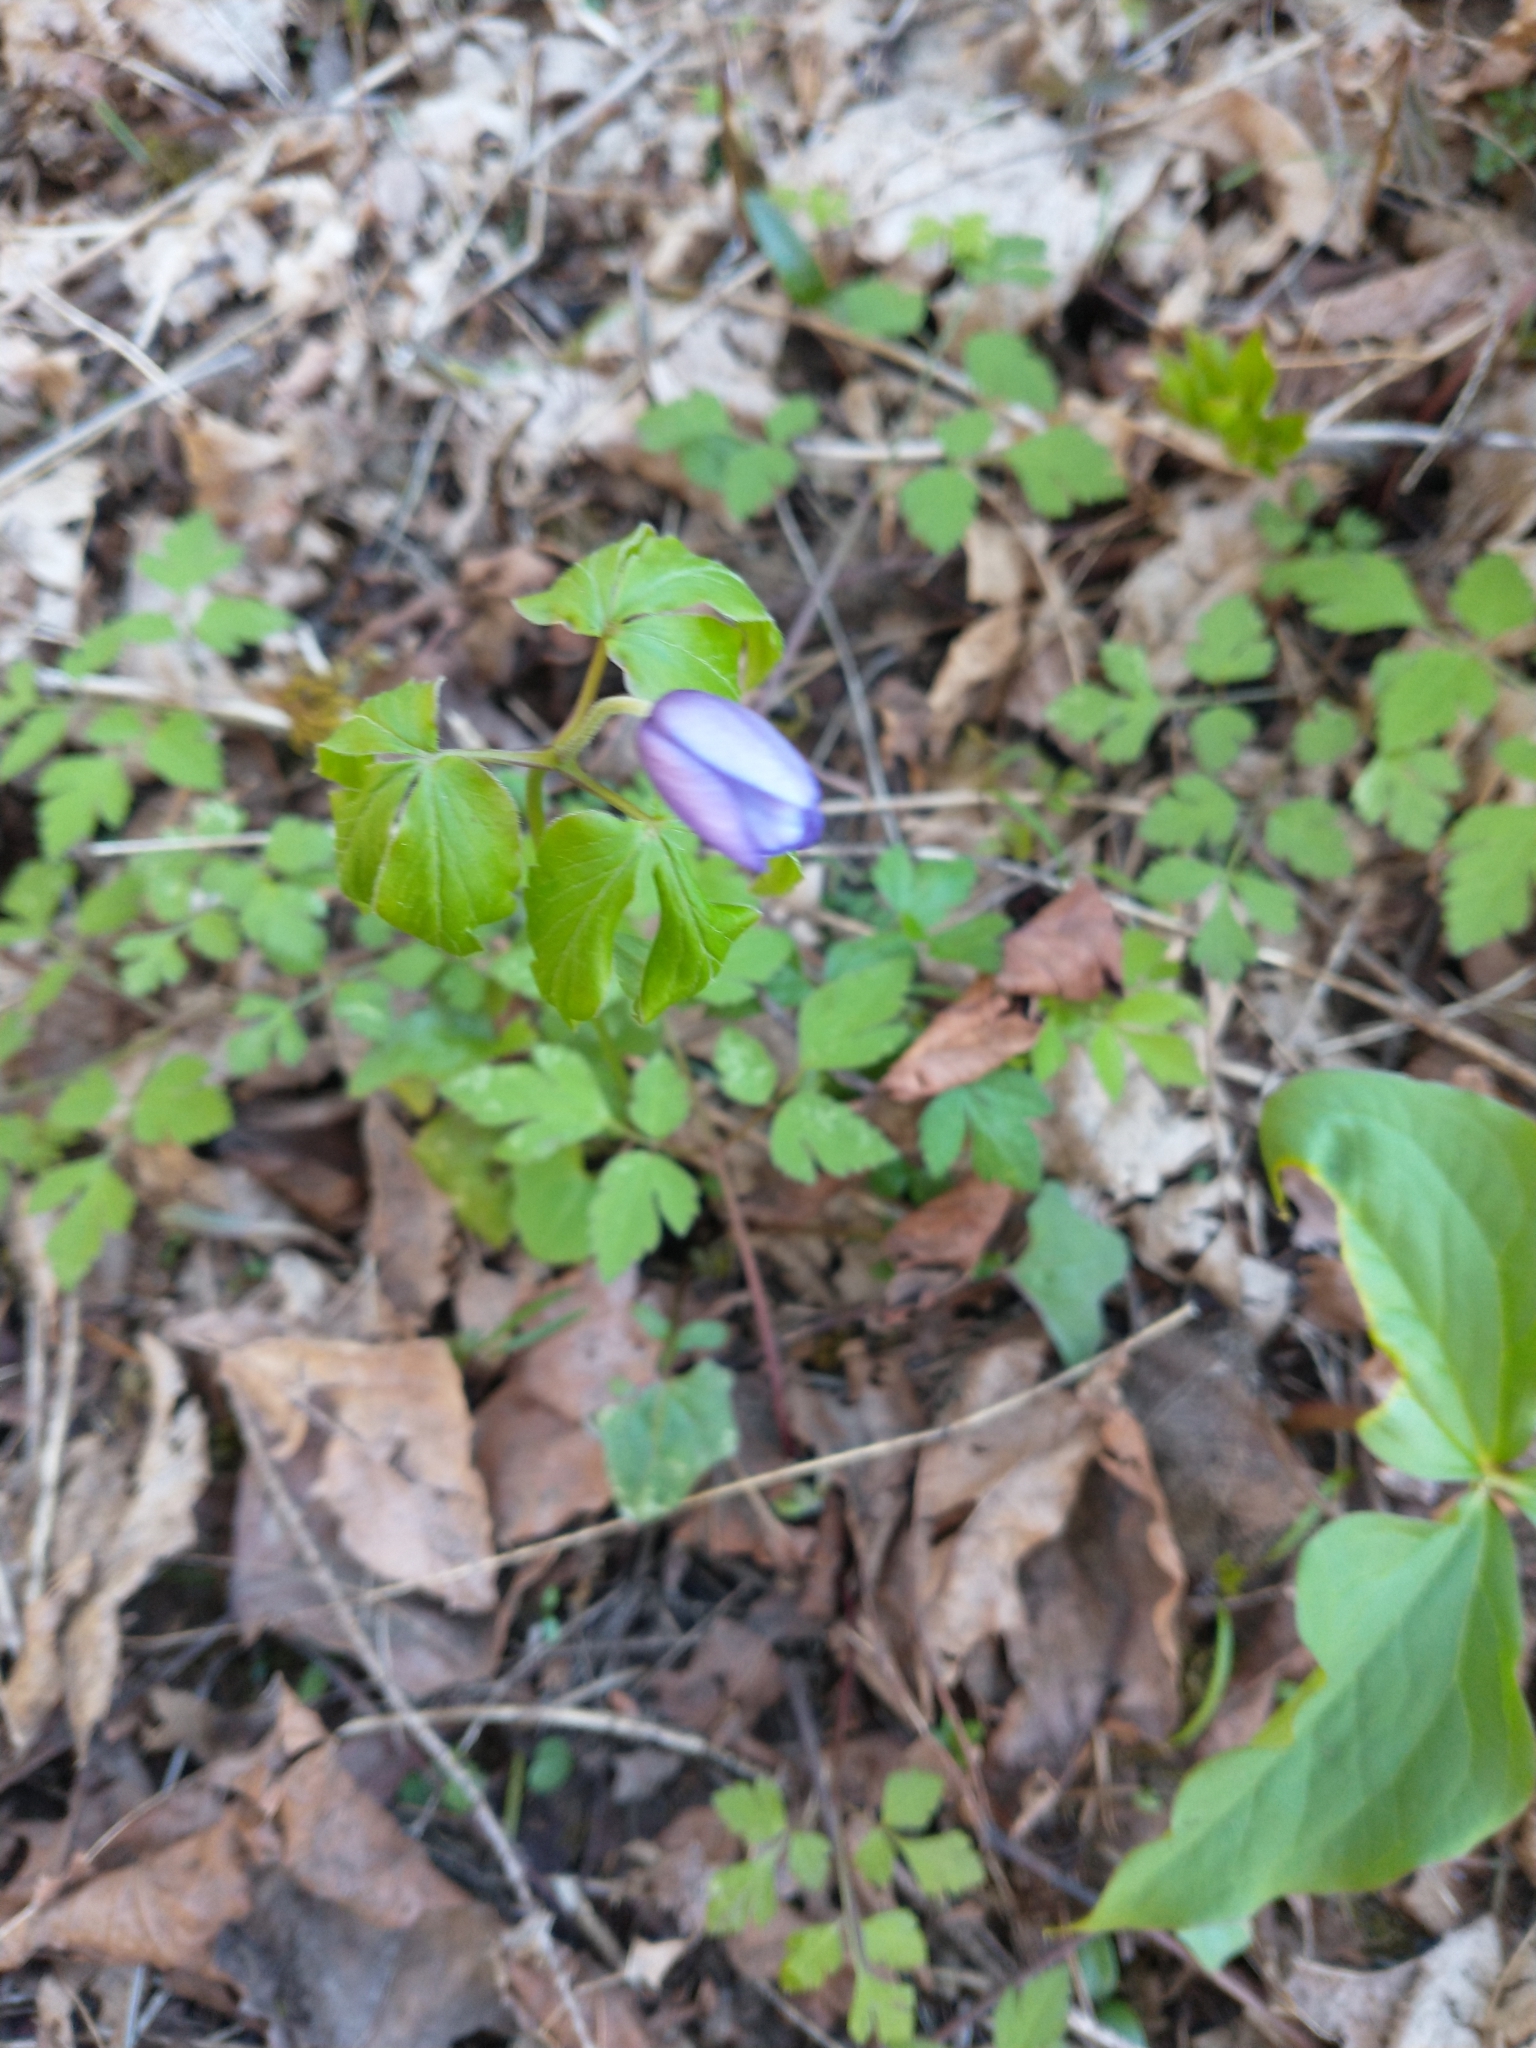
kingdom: Plantae
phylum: Tracheophyta
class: Magnoliopsida
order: Ranunculales
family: Ranunculaceae
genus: Anemone
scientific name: Anemone oregana
